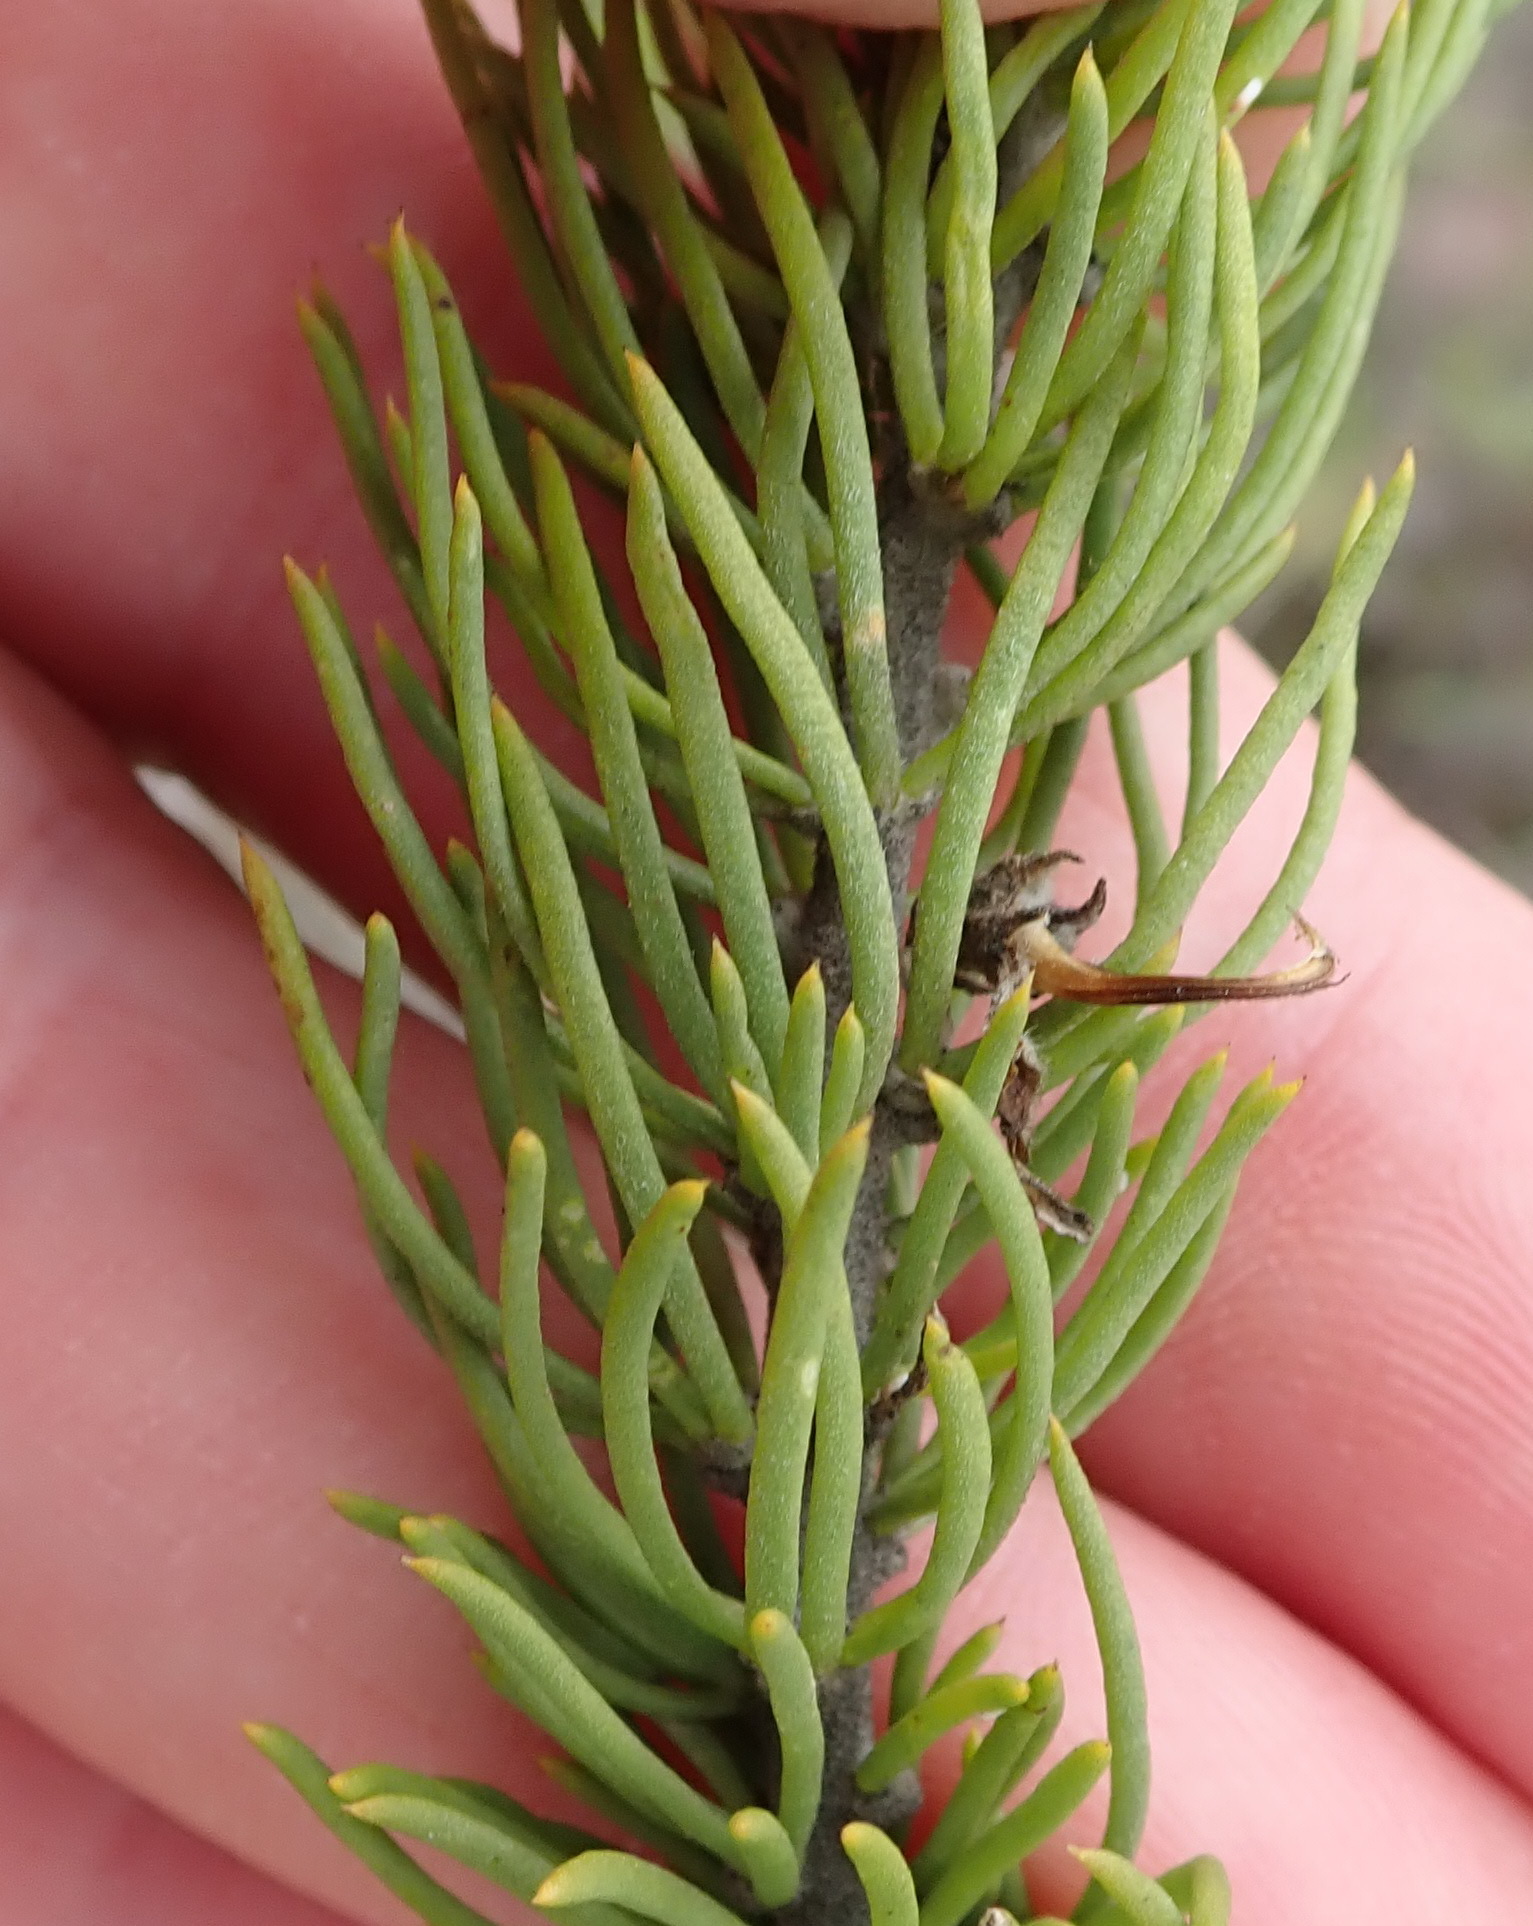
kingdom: Plantae
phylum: Tracheophyta
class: Magnoliopsida
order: Fabales
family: Fabaceae
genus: Aspalathus
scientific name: Aspalathus burchelliana
